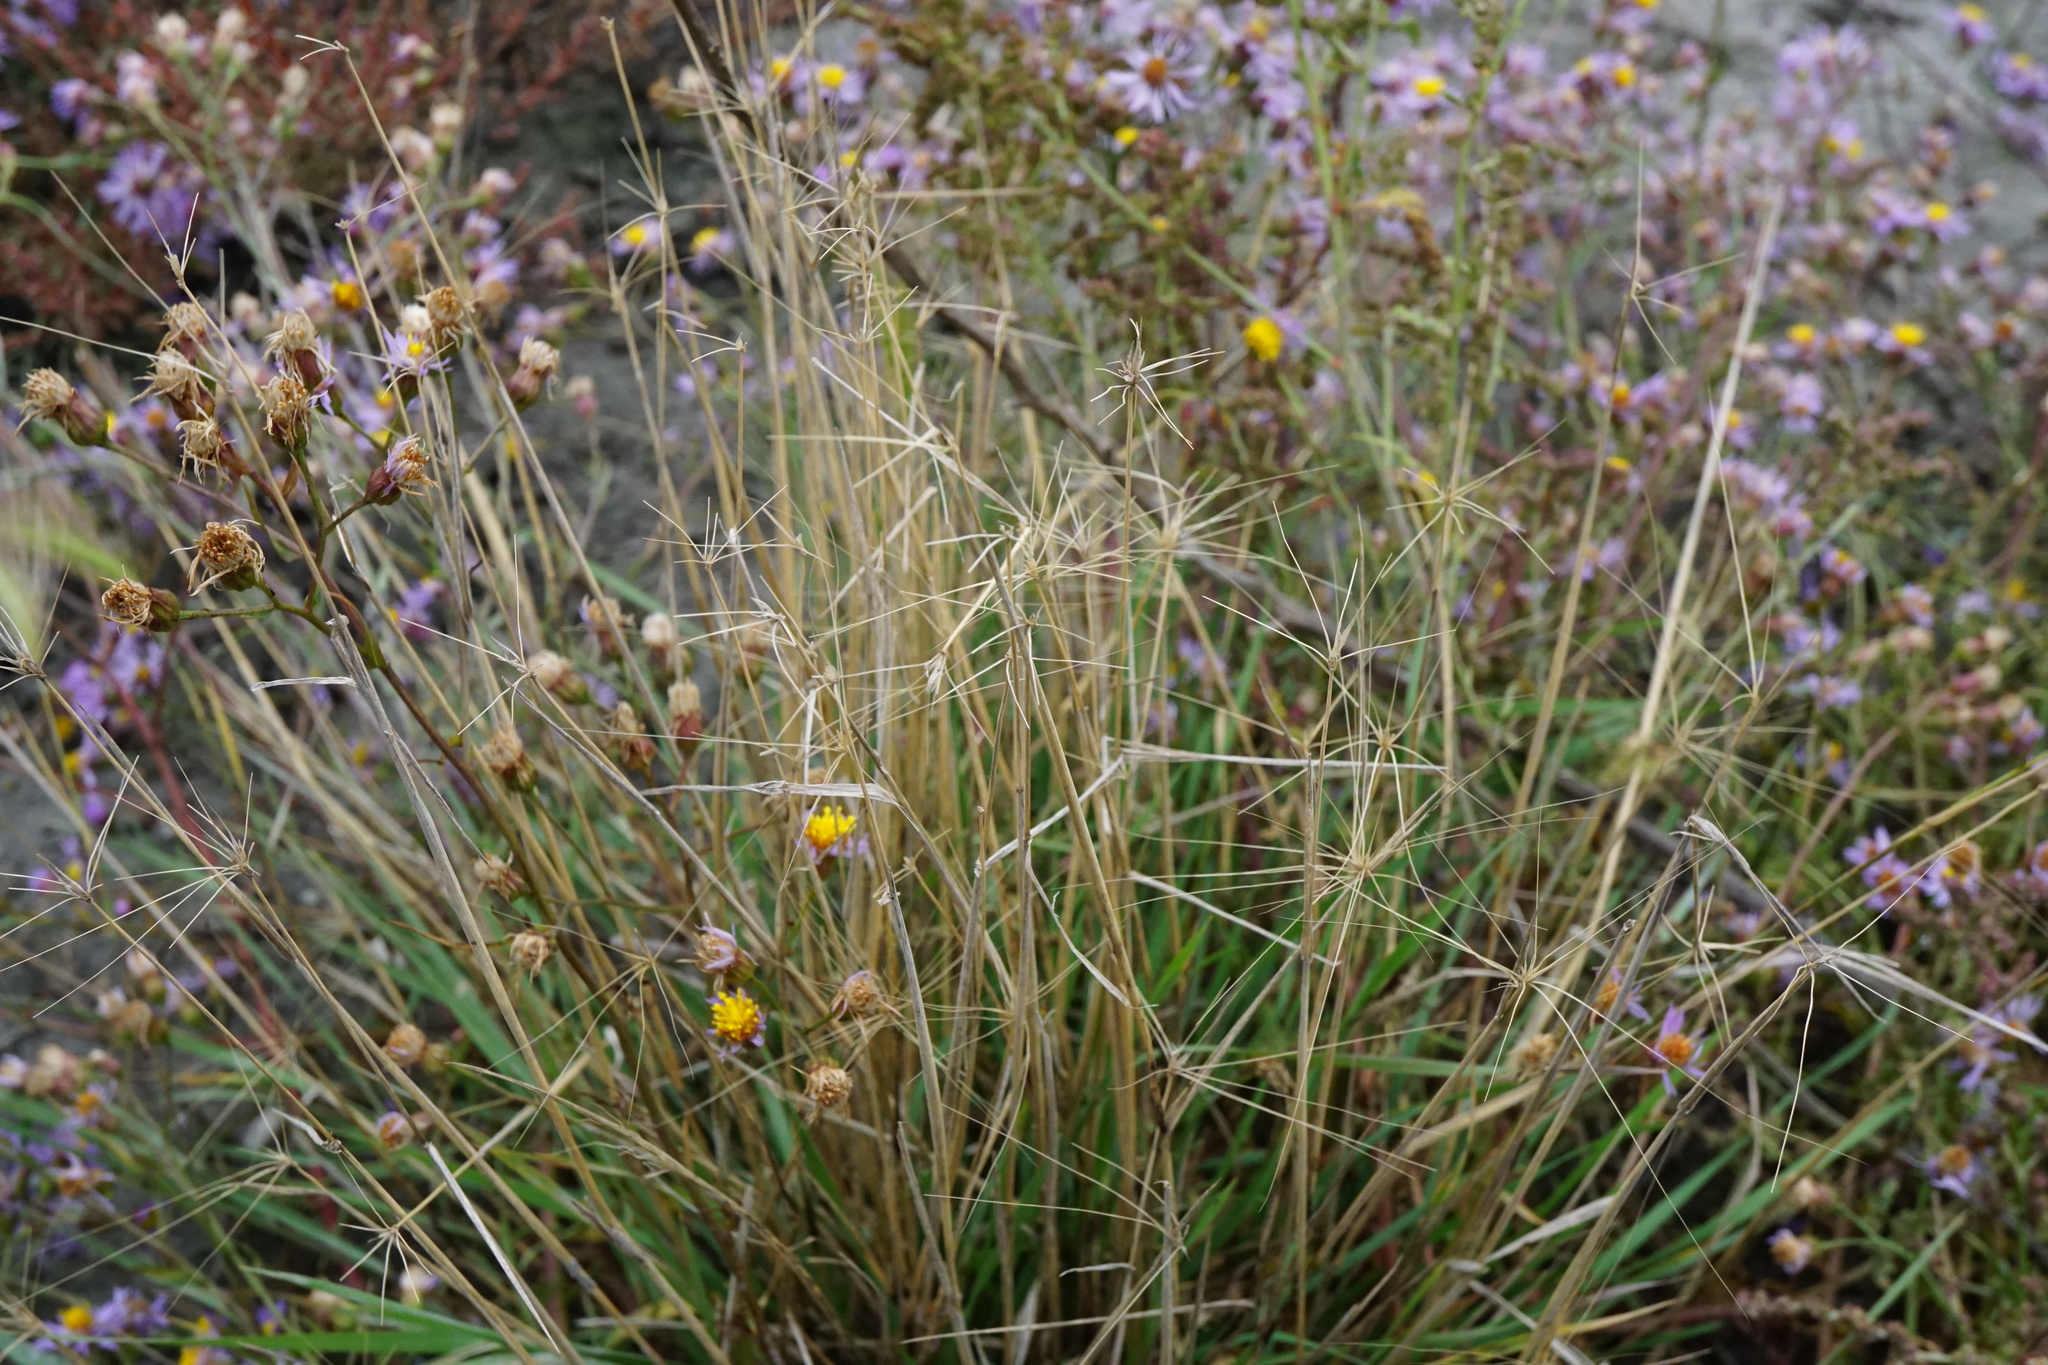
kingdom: Plantae
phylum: Tracheophyta
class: Liliopsida
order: Poales
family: Poaceae
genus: Hordeum
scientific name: Hordeum jubatum
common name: Foxtail barley
